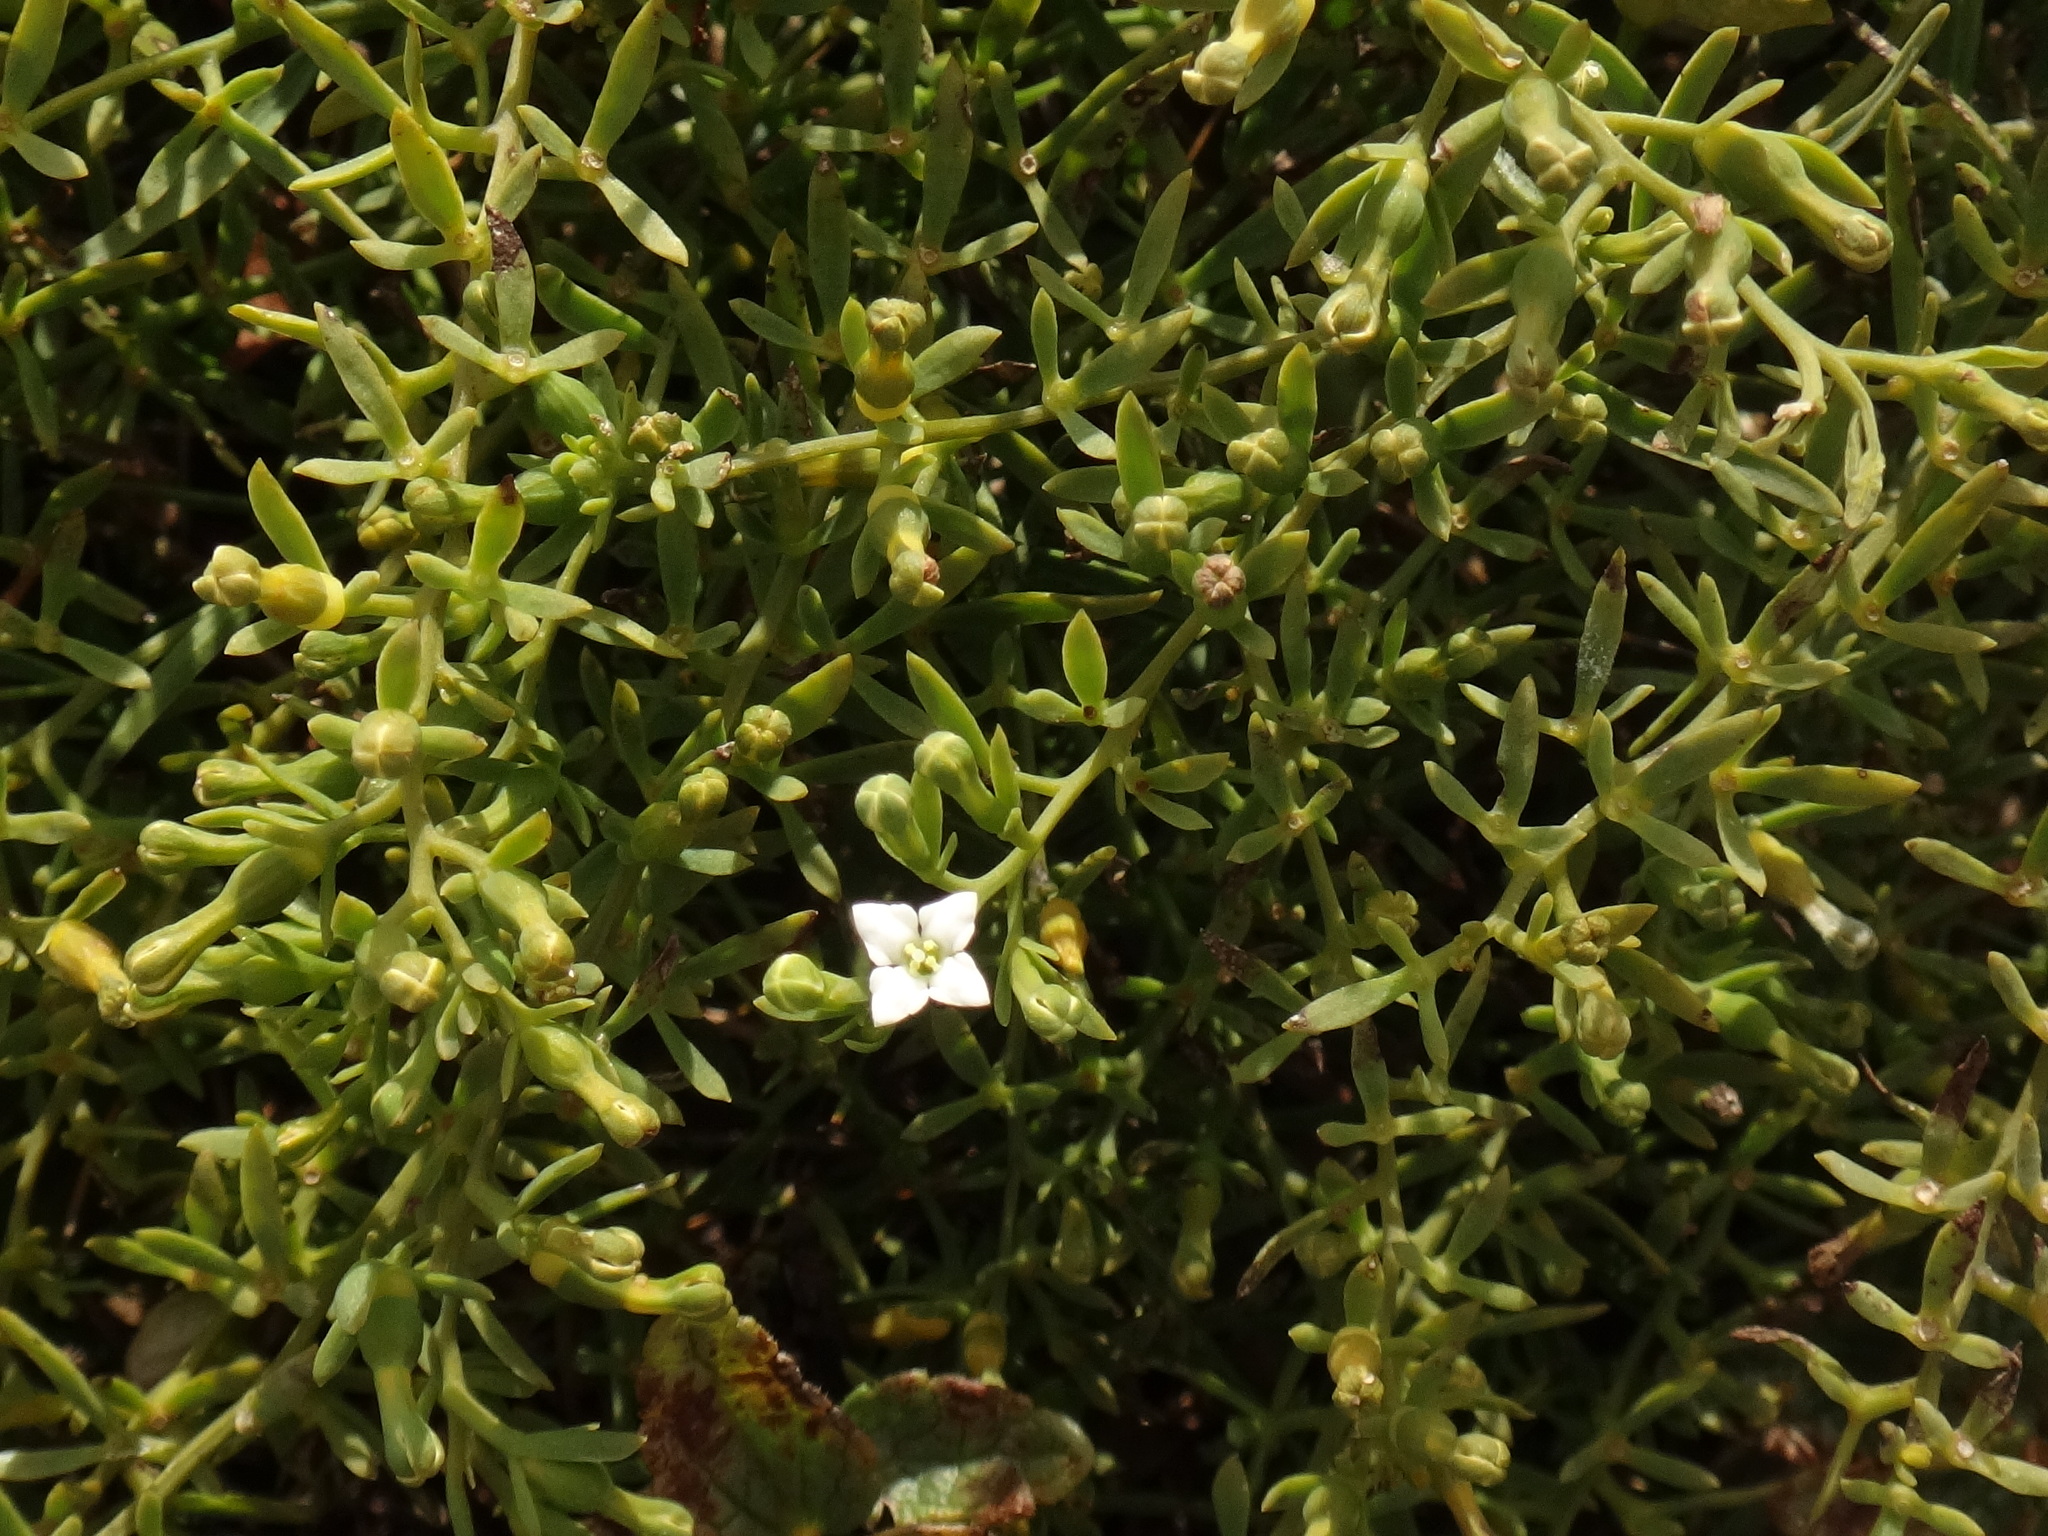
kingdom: Plantae
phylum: Tracheophyta
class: Magnoliopsida
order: Santalales
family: Thesiaceae
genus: Thesium
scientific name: Thesium alpinum
